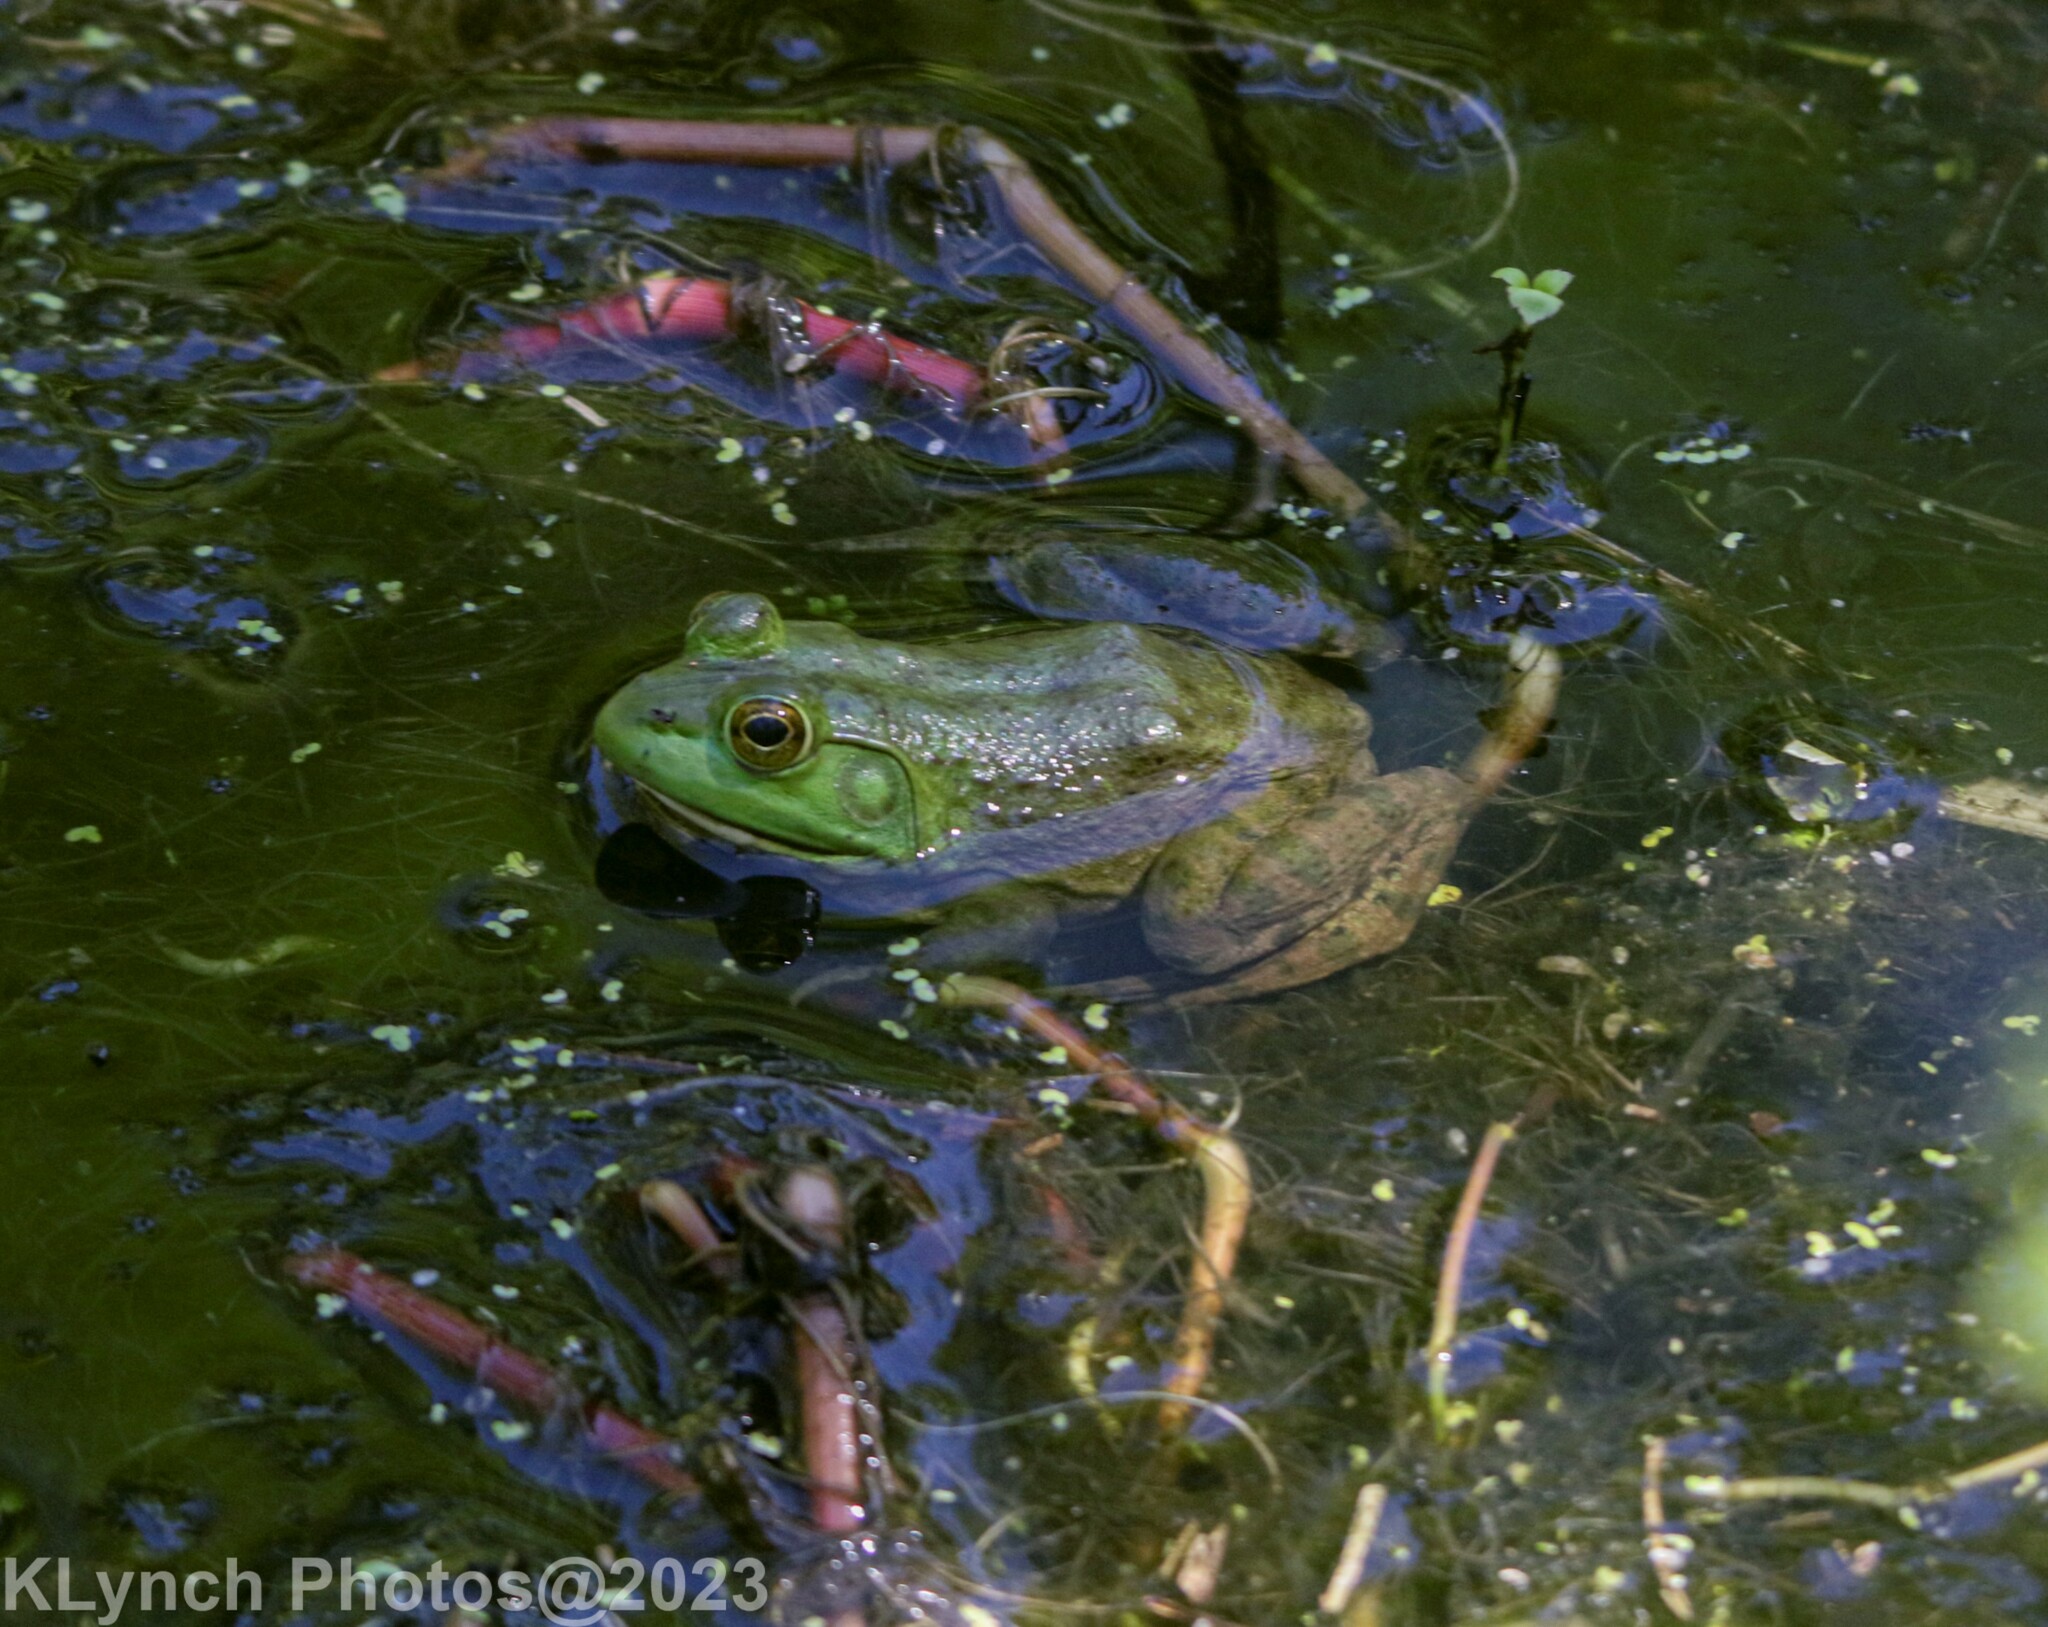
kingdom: Animalia
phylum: Chordata
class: Amphibia
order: Anura
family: Ranidae
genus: Lithobates
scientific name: Lithobates catesbeianus
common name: American bullfrog
